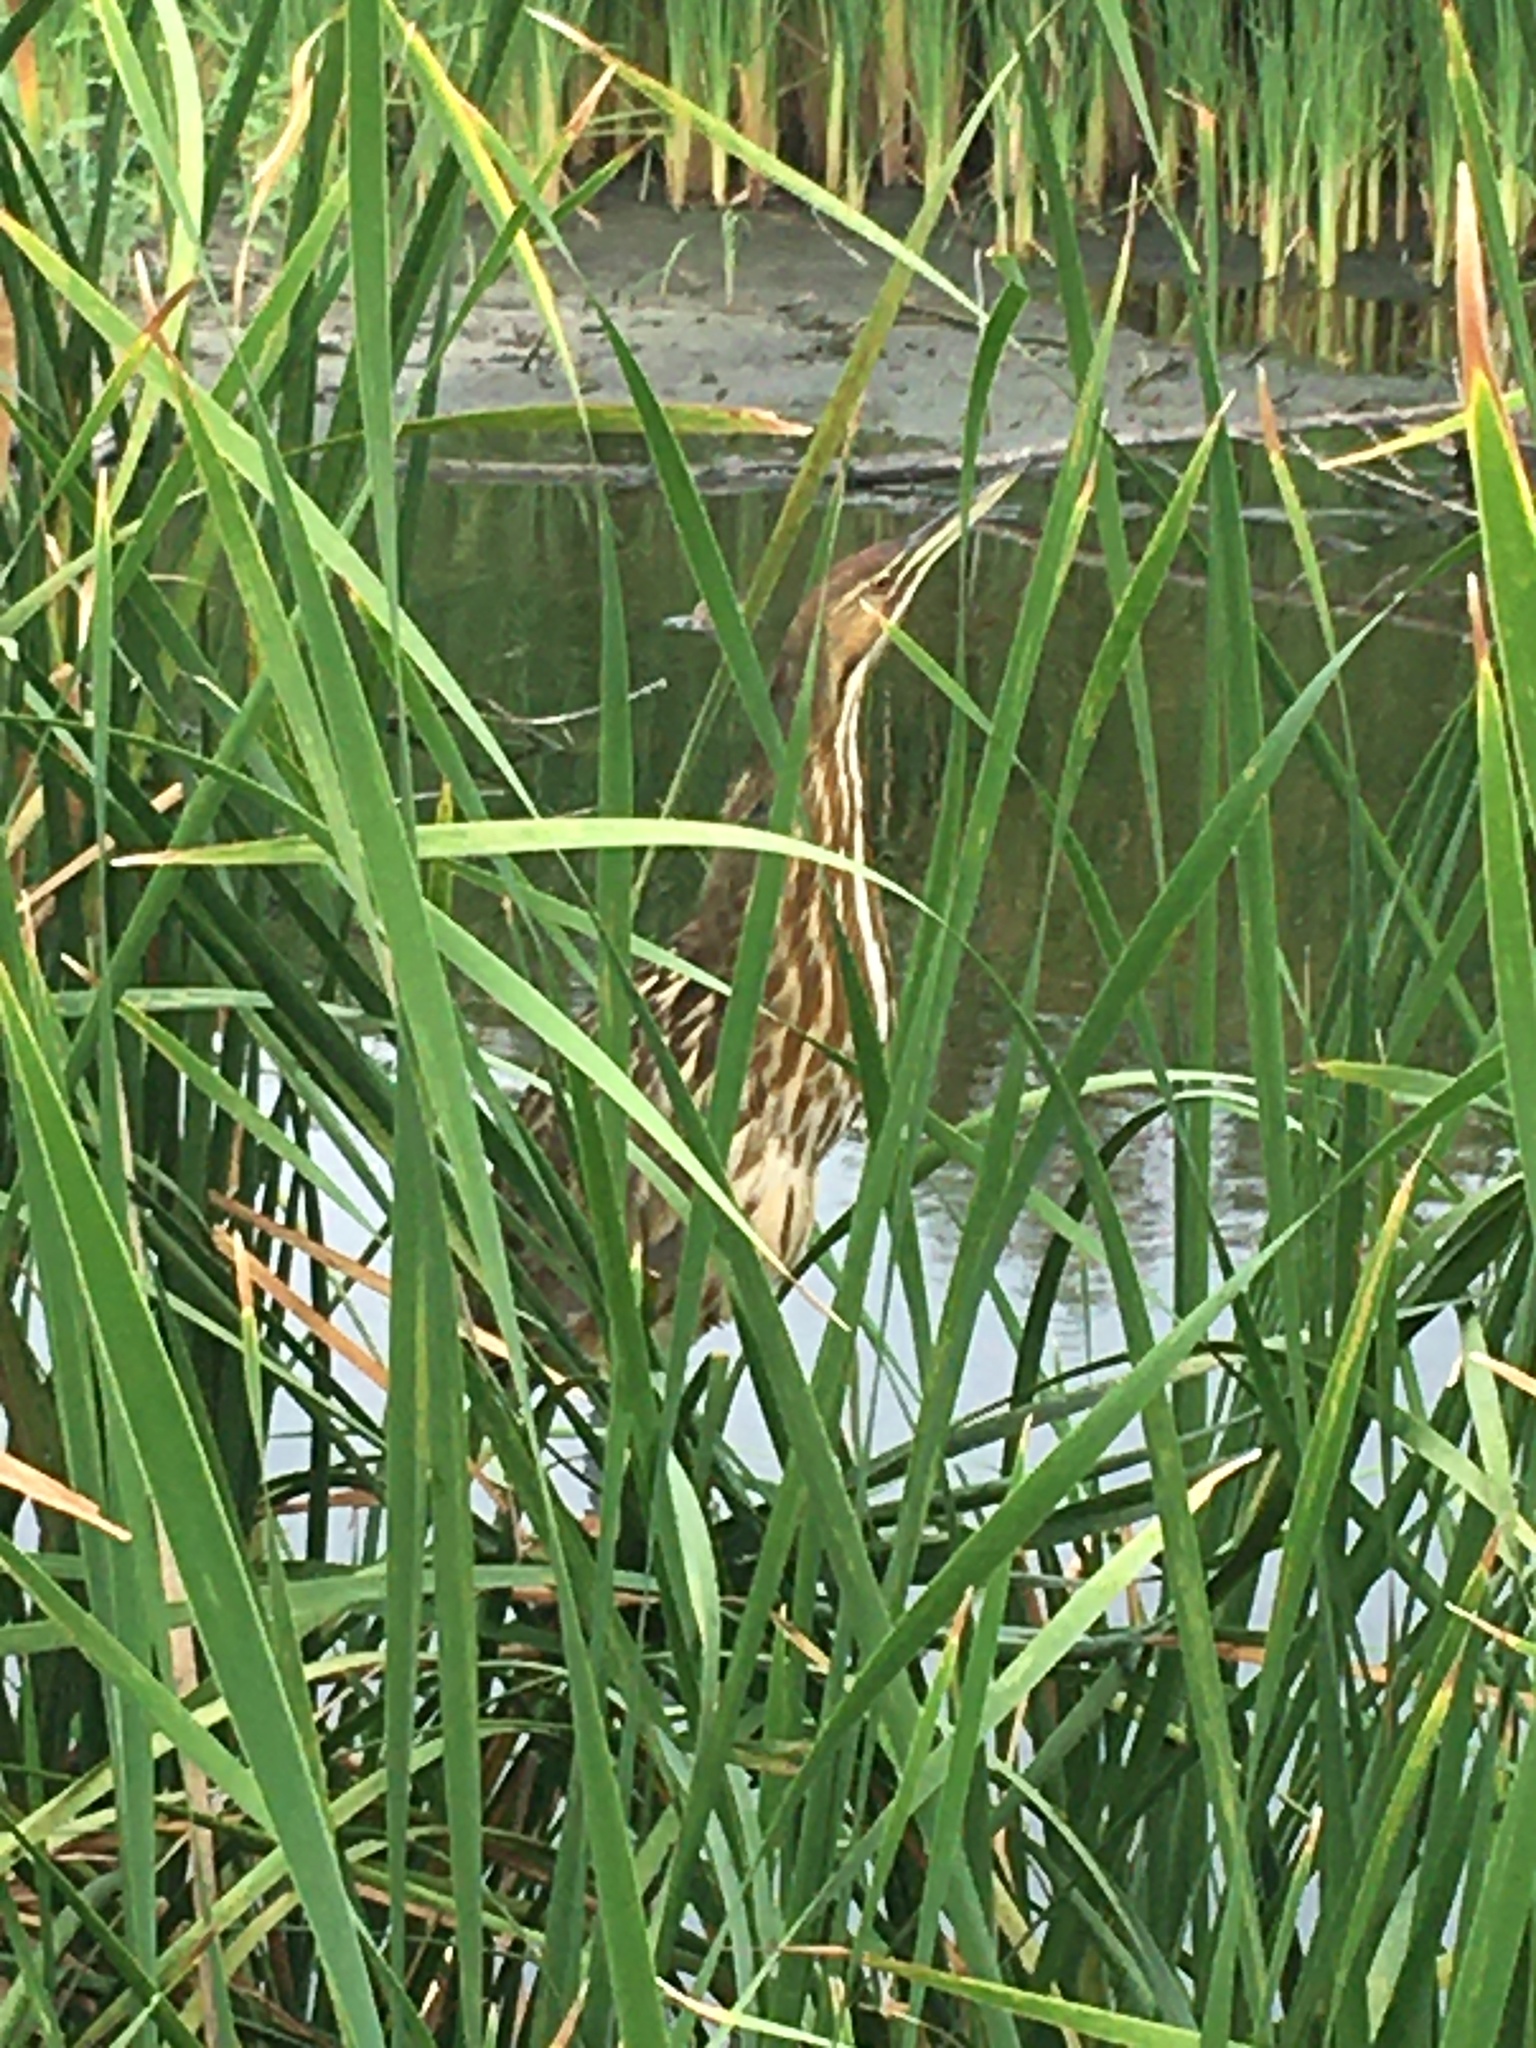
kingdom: Animalia
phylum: Chordata
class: Aves
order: Pelecaniformes
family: Ardeidae
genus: Botaurus
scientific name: Botaurus lentiginosus
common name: American bittern
